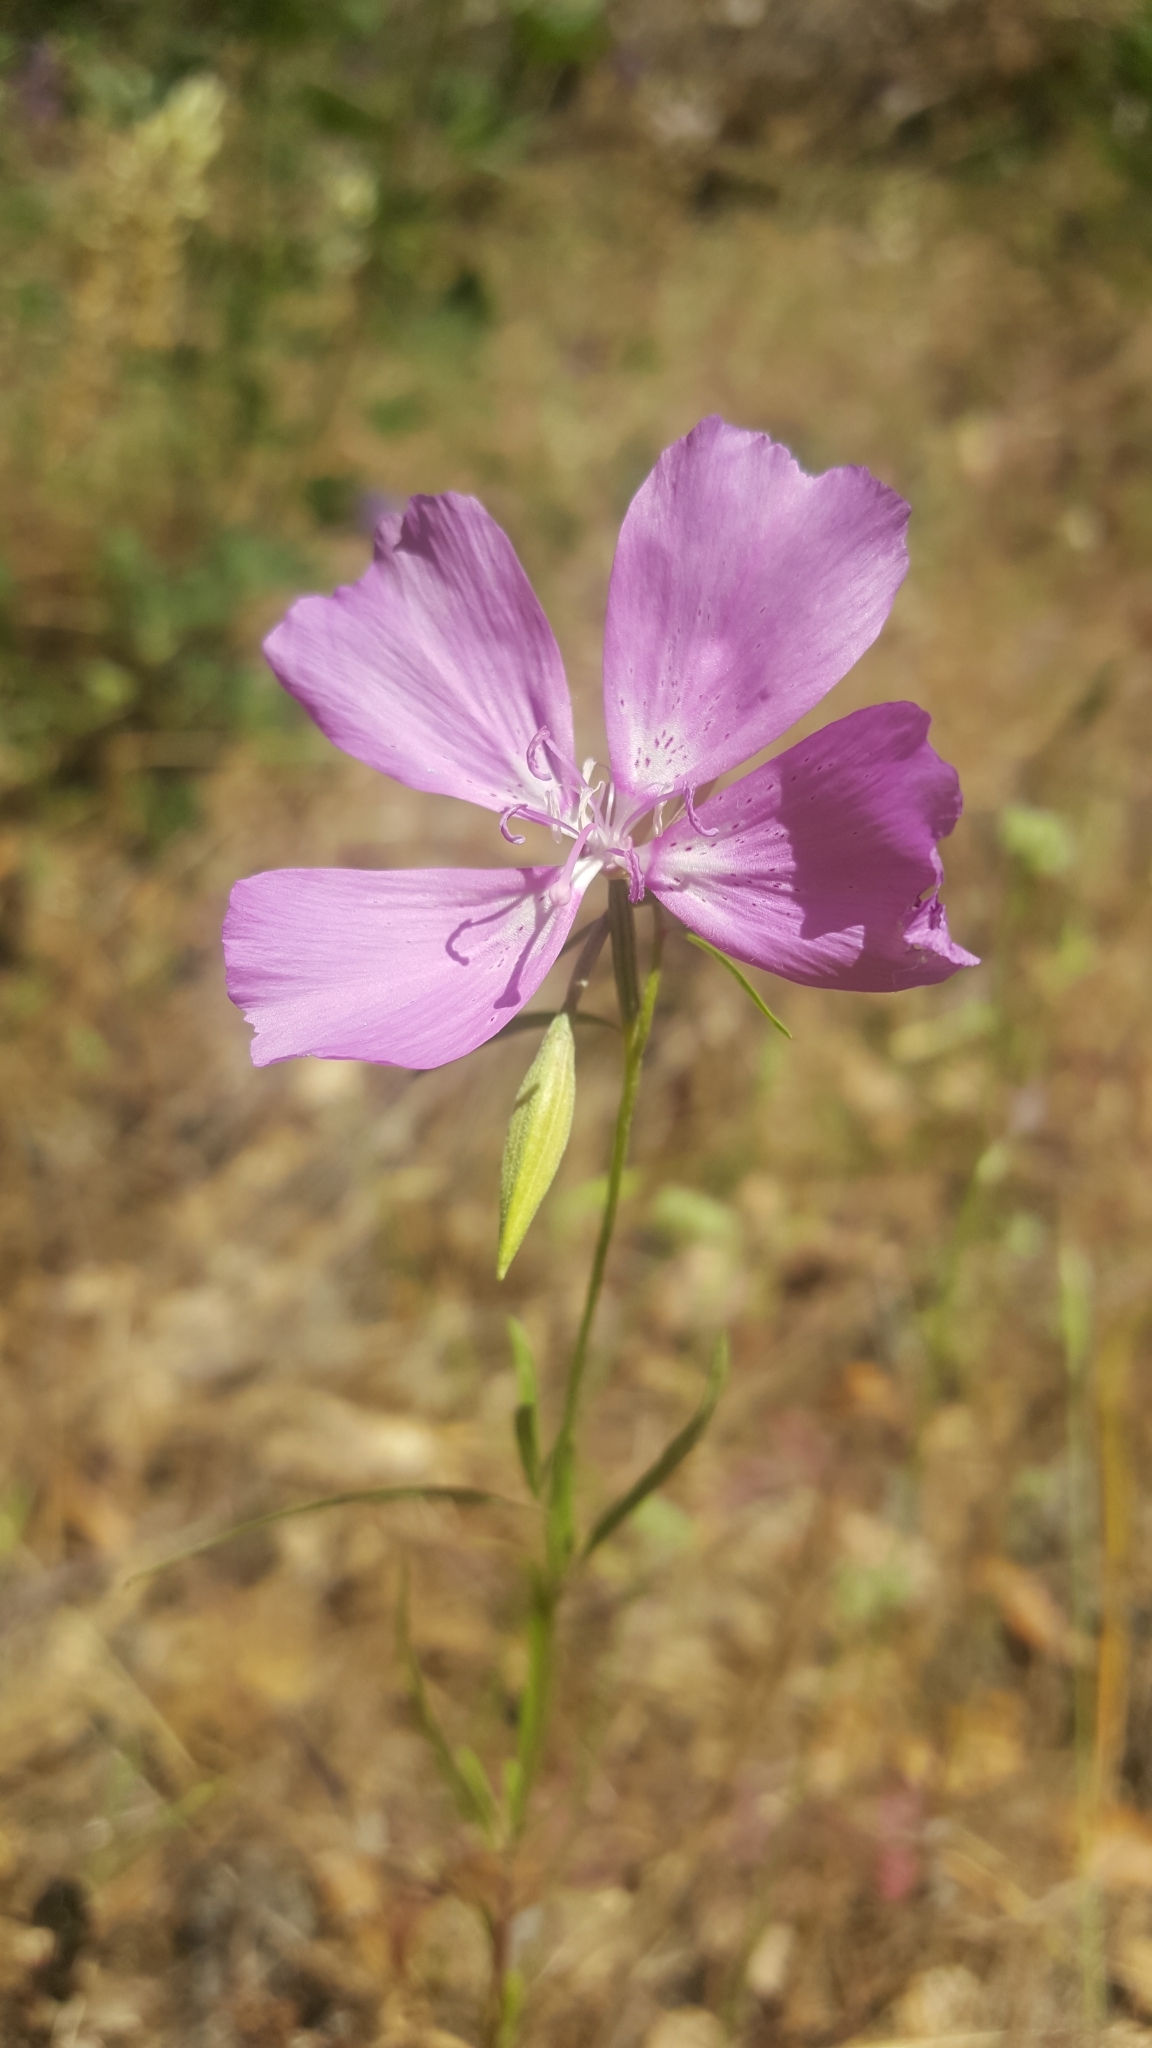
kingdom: Plantae
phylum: Tracheophyta
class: Magnoliopsida
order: Myrtales
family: Onagraceae
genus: Clarkia
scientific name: Clarkia biloba
